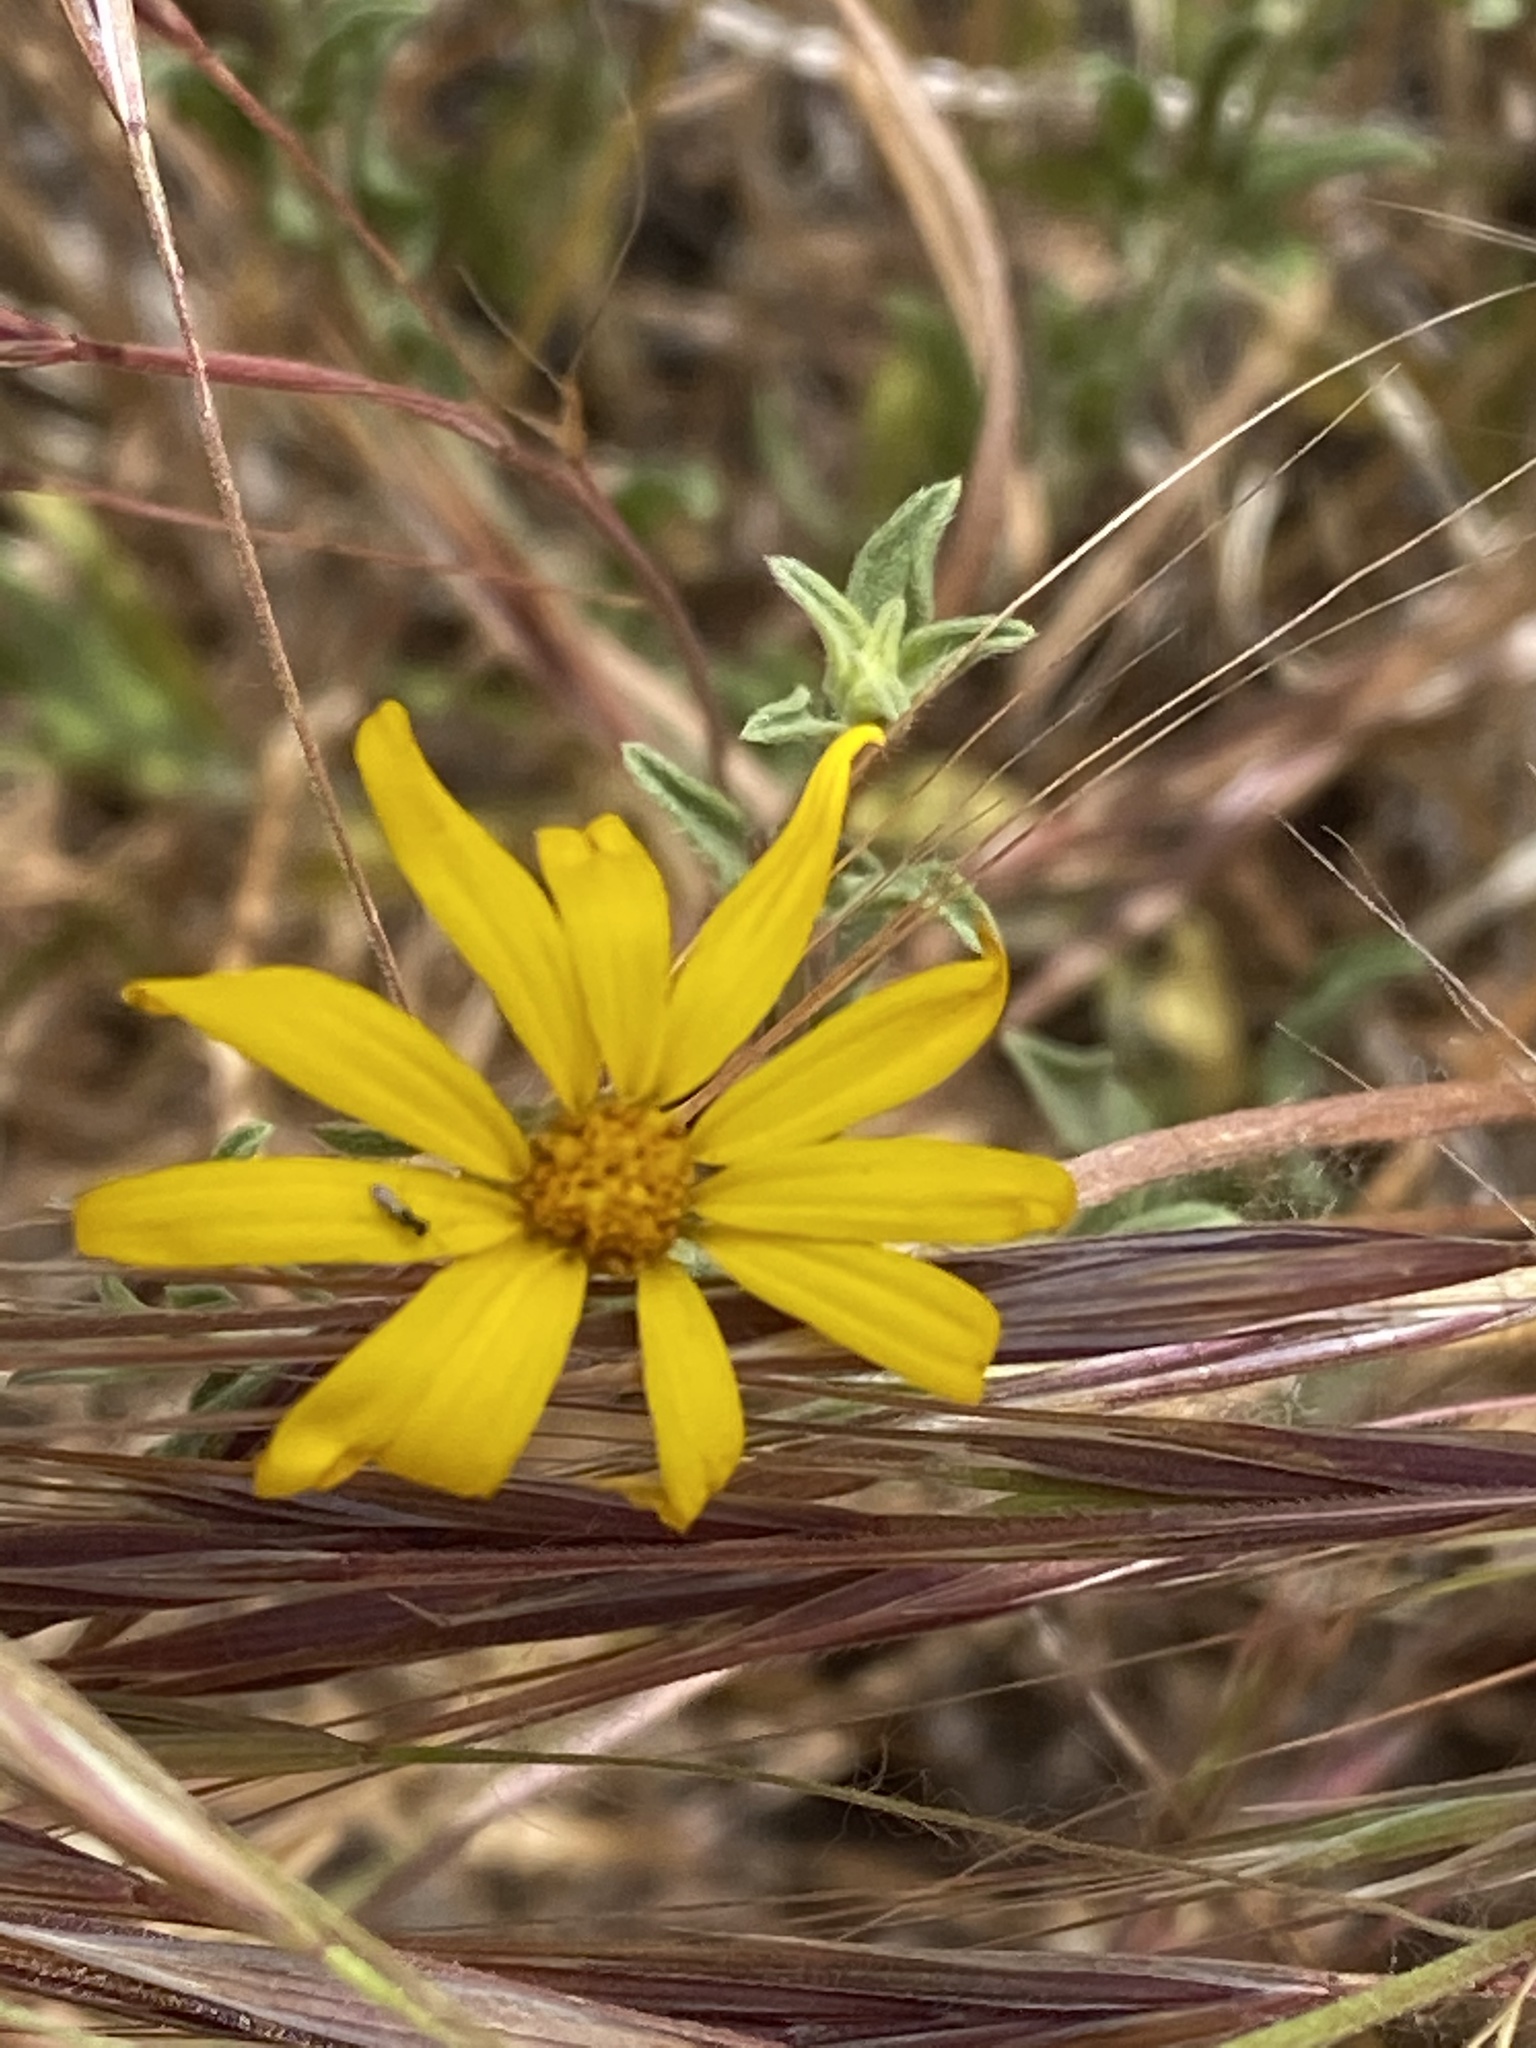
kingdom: Plantae
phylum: Tracheophyta
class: Magnoliopsida
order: Asterales
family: Asteraceae
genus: Heterotheca
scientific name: Heterotheca polothrix
